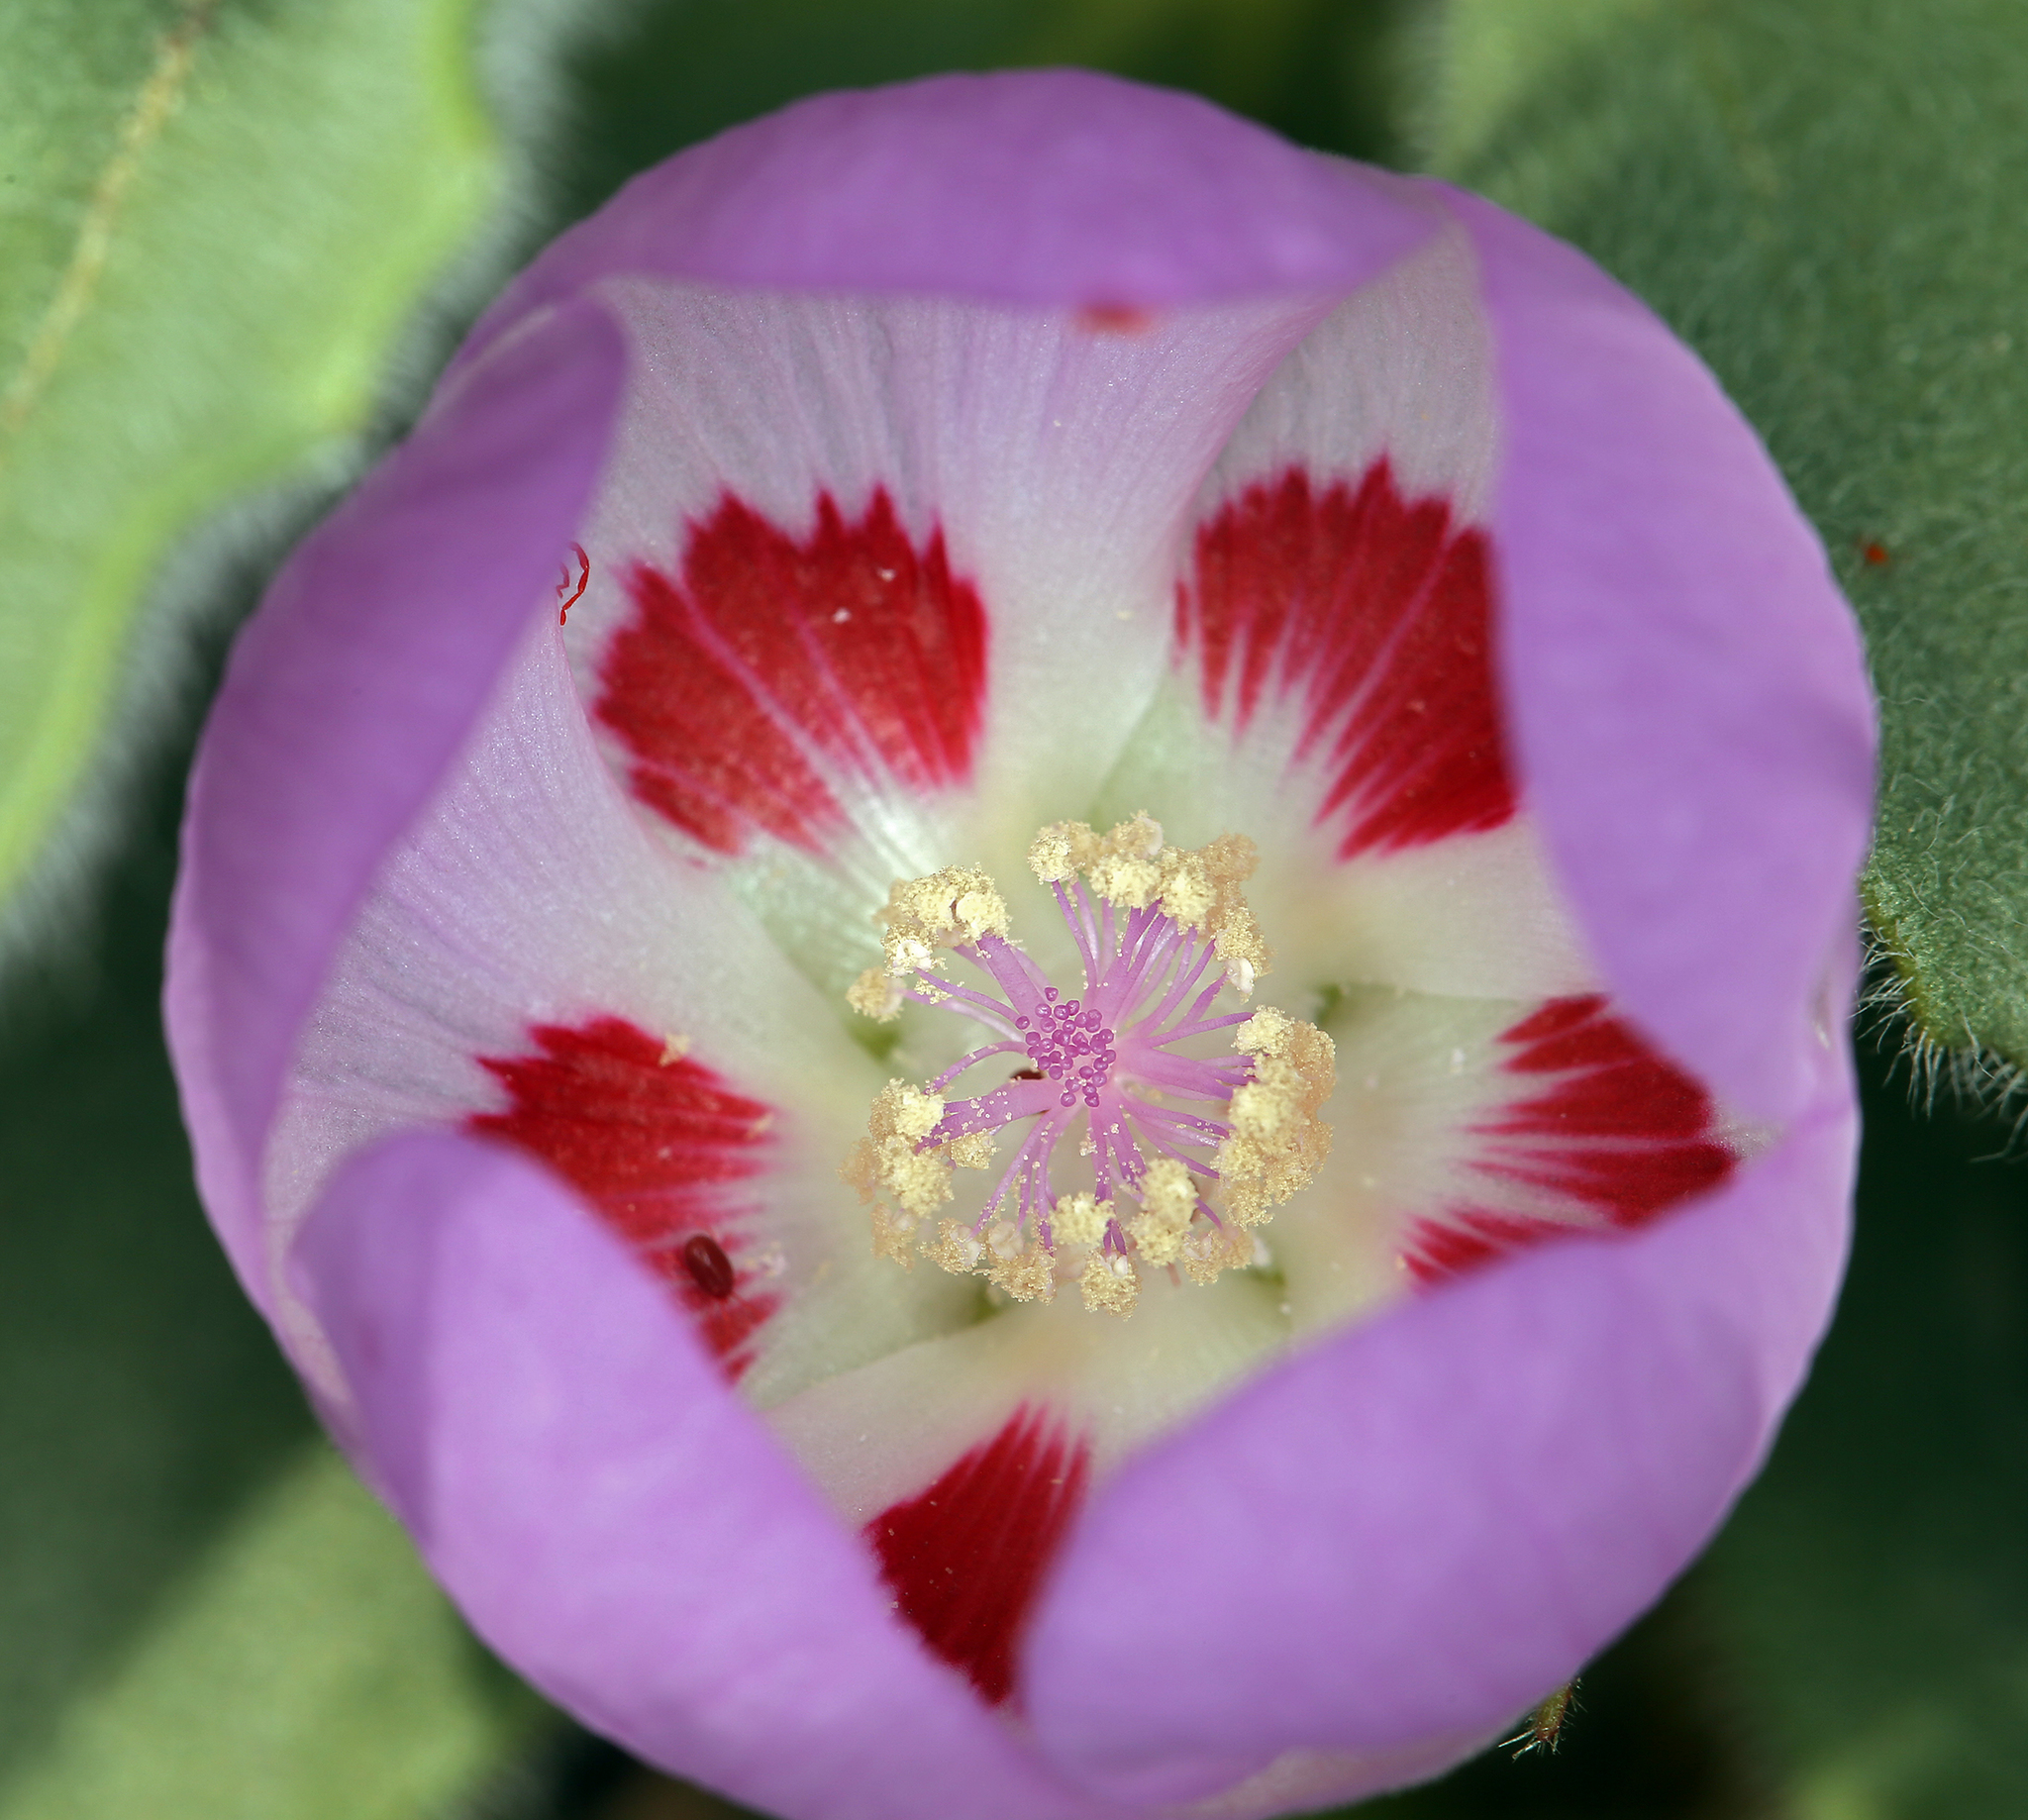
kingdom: Plantae
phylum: Tracheophyta
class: Magnoliopsida
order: Malvales
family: Malvaceae
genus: Eremalche
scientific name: Eremalche rotundifolia
